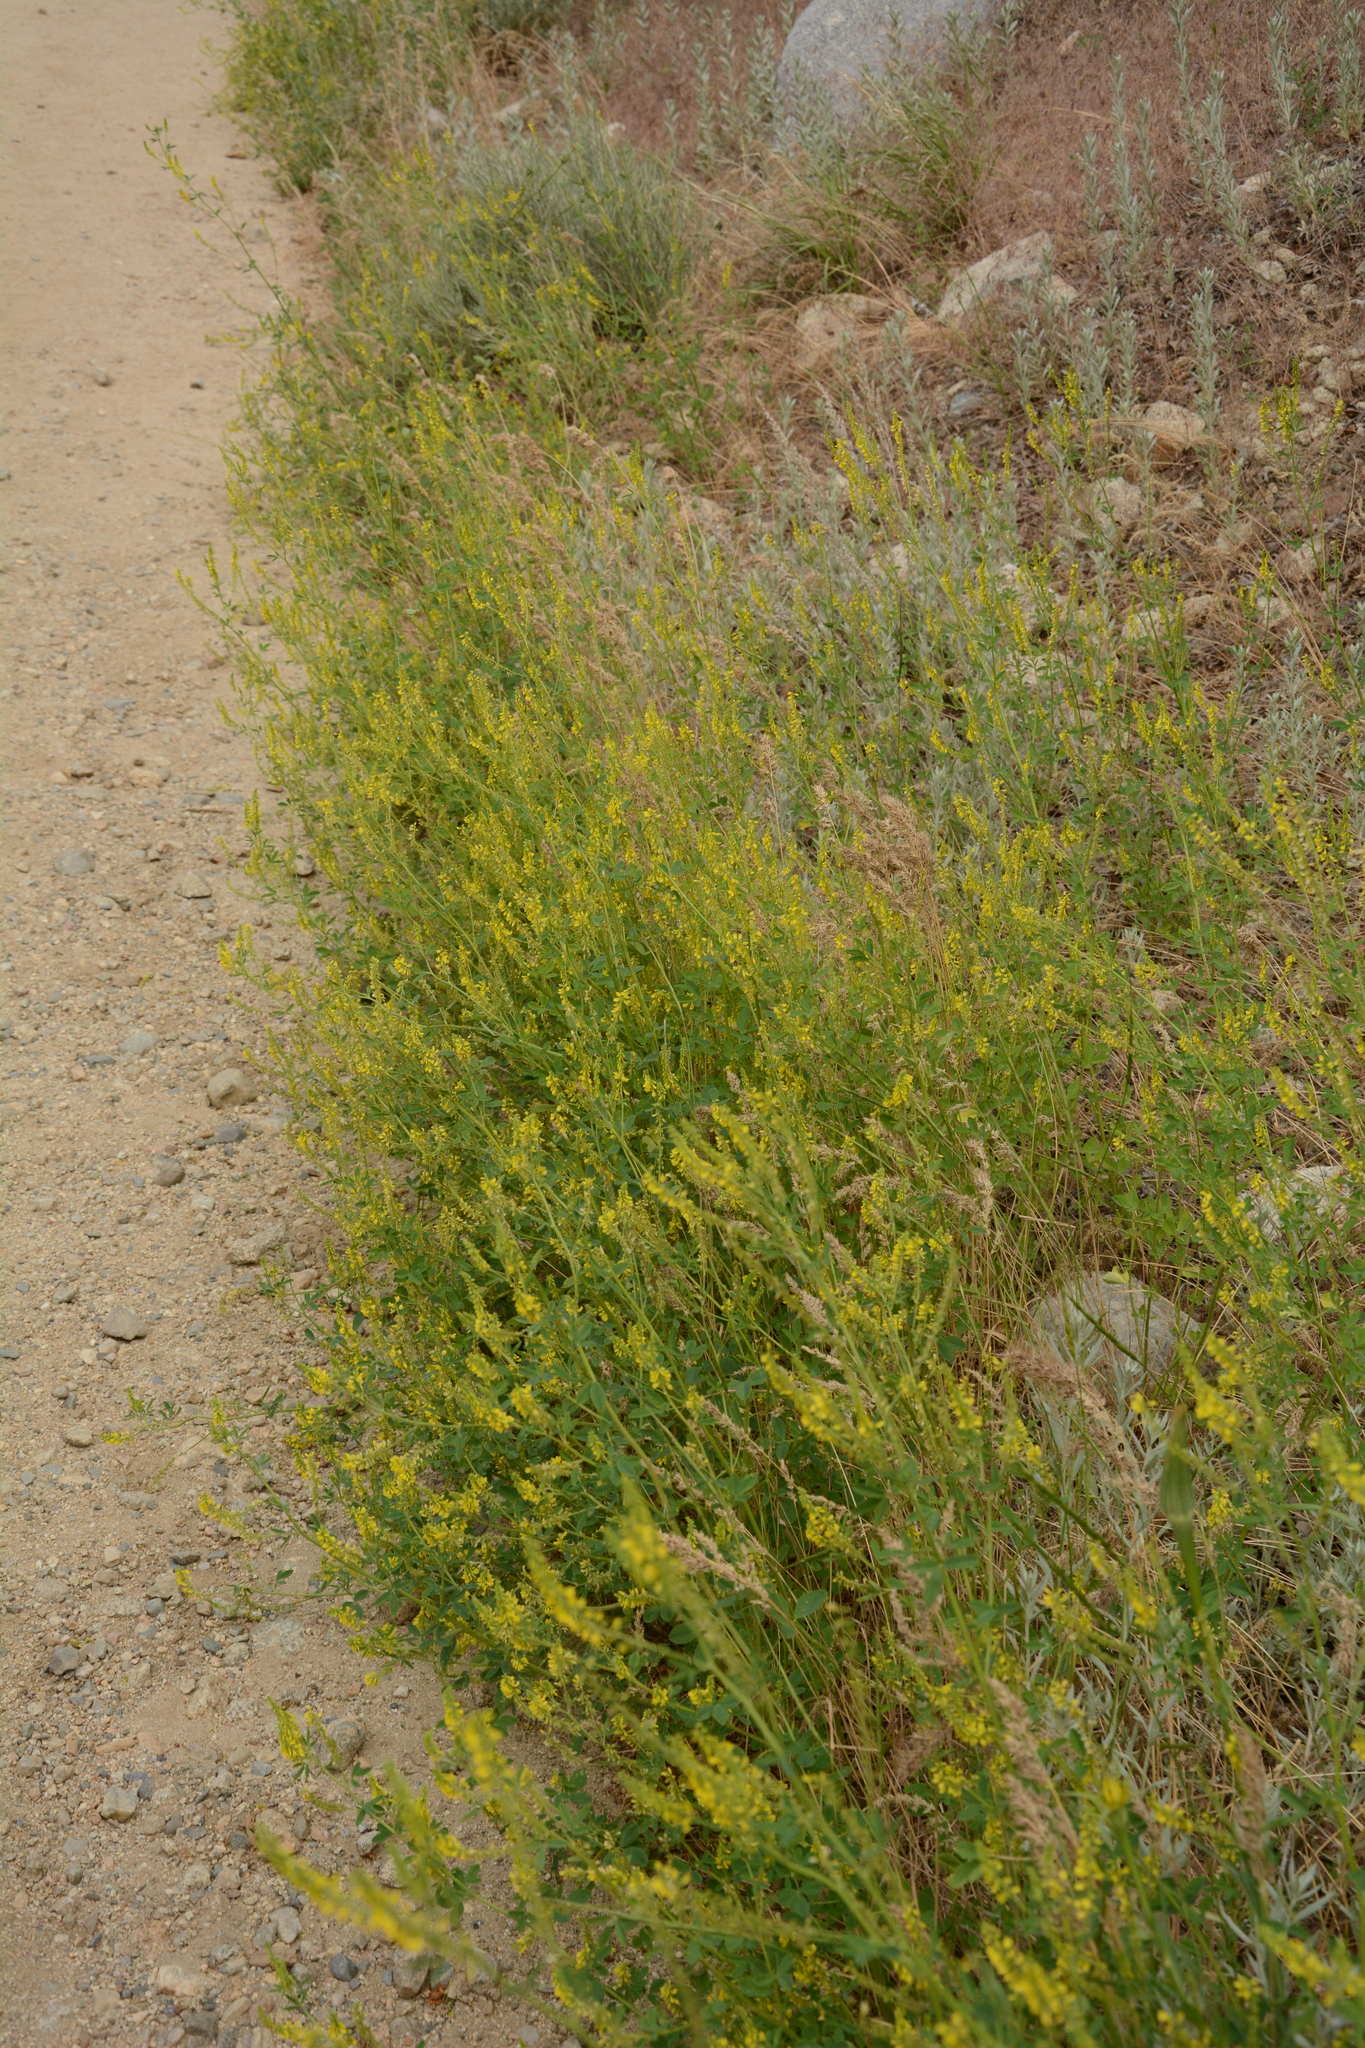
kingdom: Plantae
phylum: Tracheophyta
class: Magnoliopsida
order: Fabales
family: Fabaceae
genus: Melilotus
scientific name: Melilotus officinalis
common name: Sweetclover
